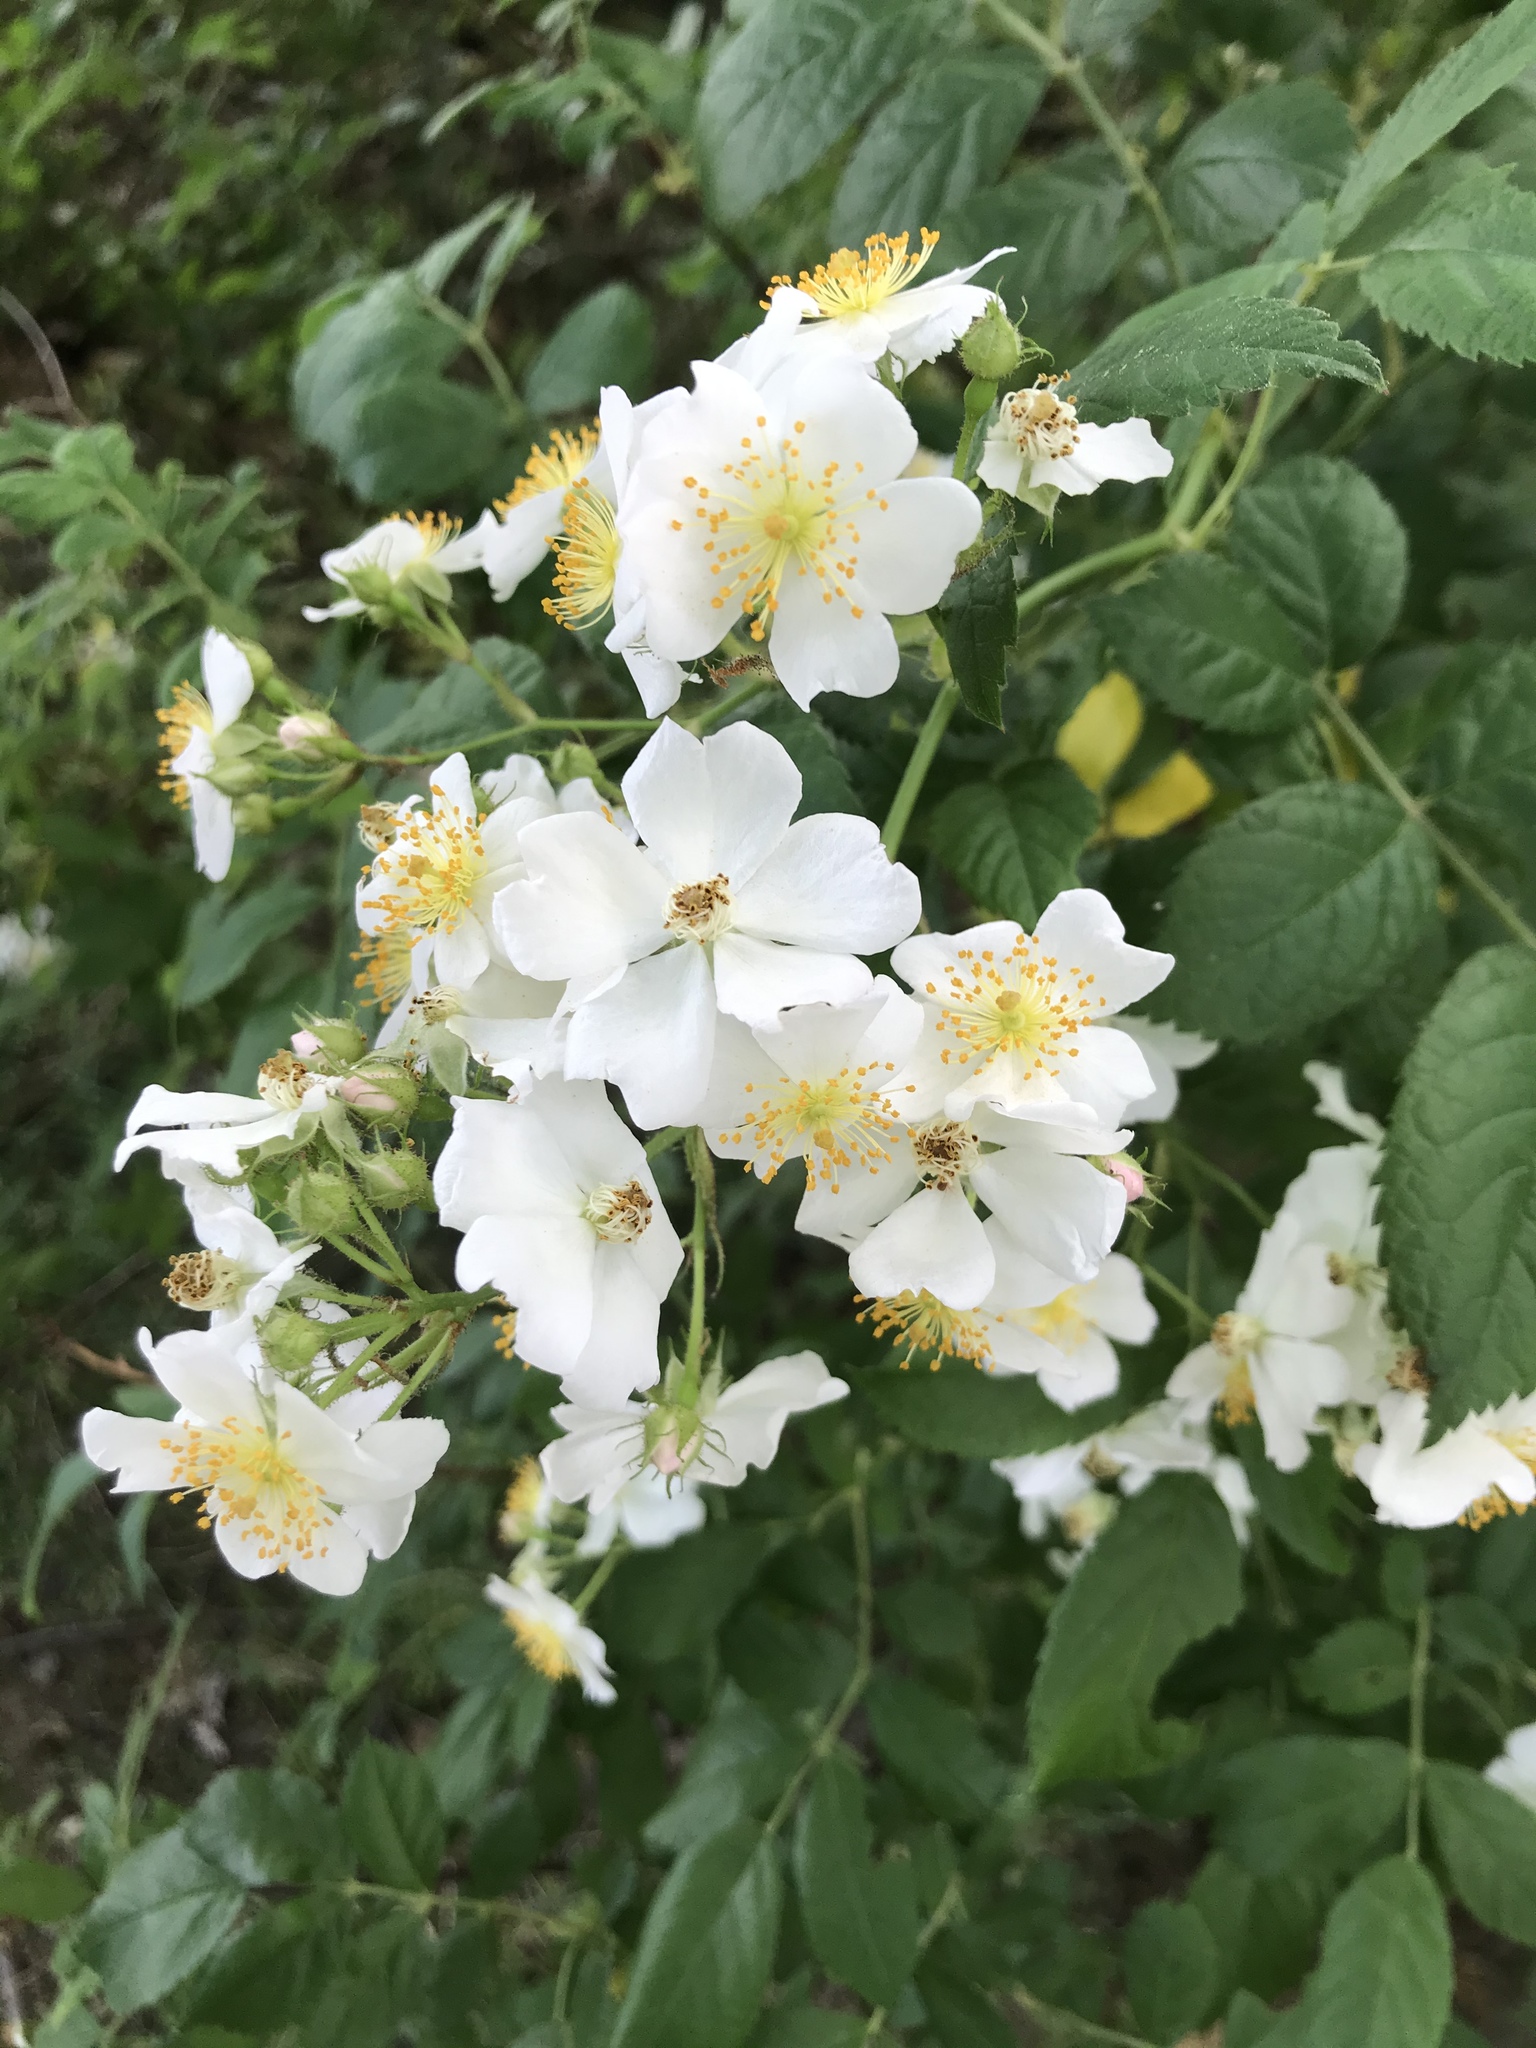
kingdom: Plantae
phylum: Tracheophyta
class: Magnoliopsida
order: Rosales
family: Rosaceae
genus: Rosa
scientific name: Rosa multiflora
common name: Multiflora rose
